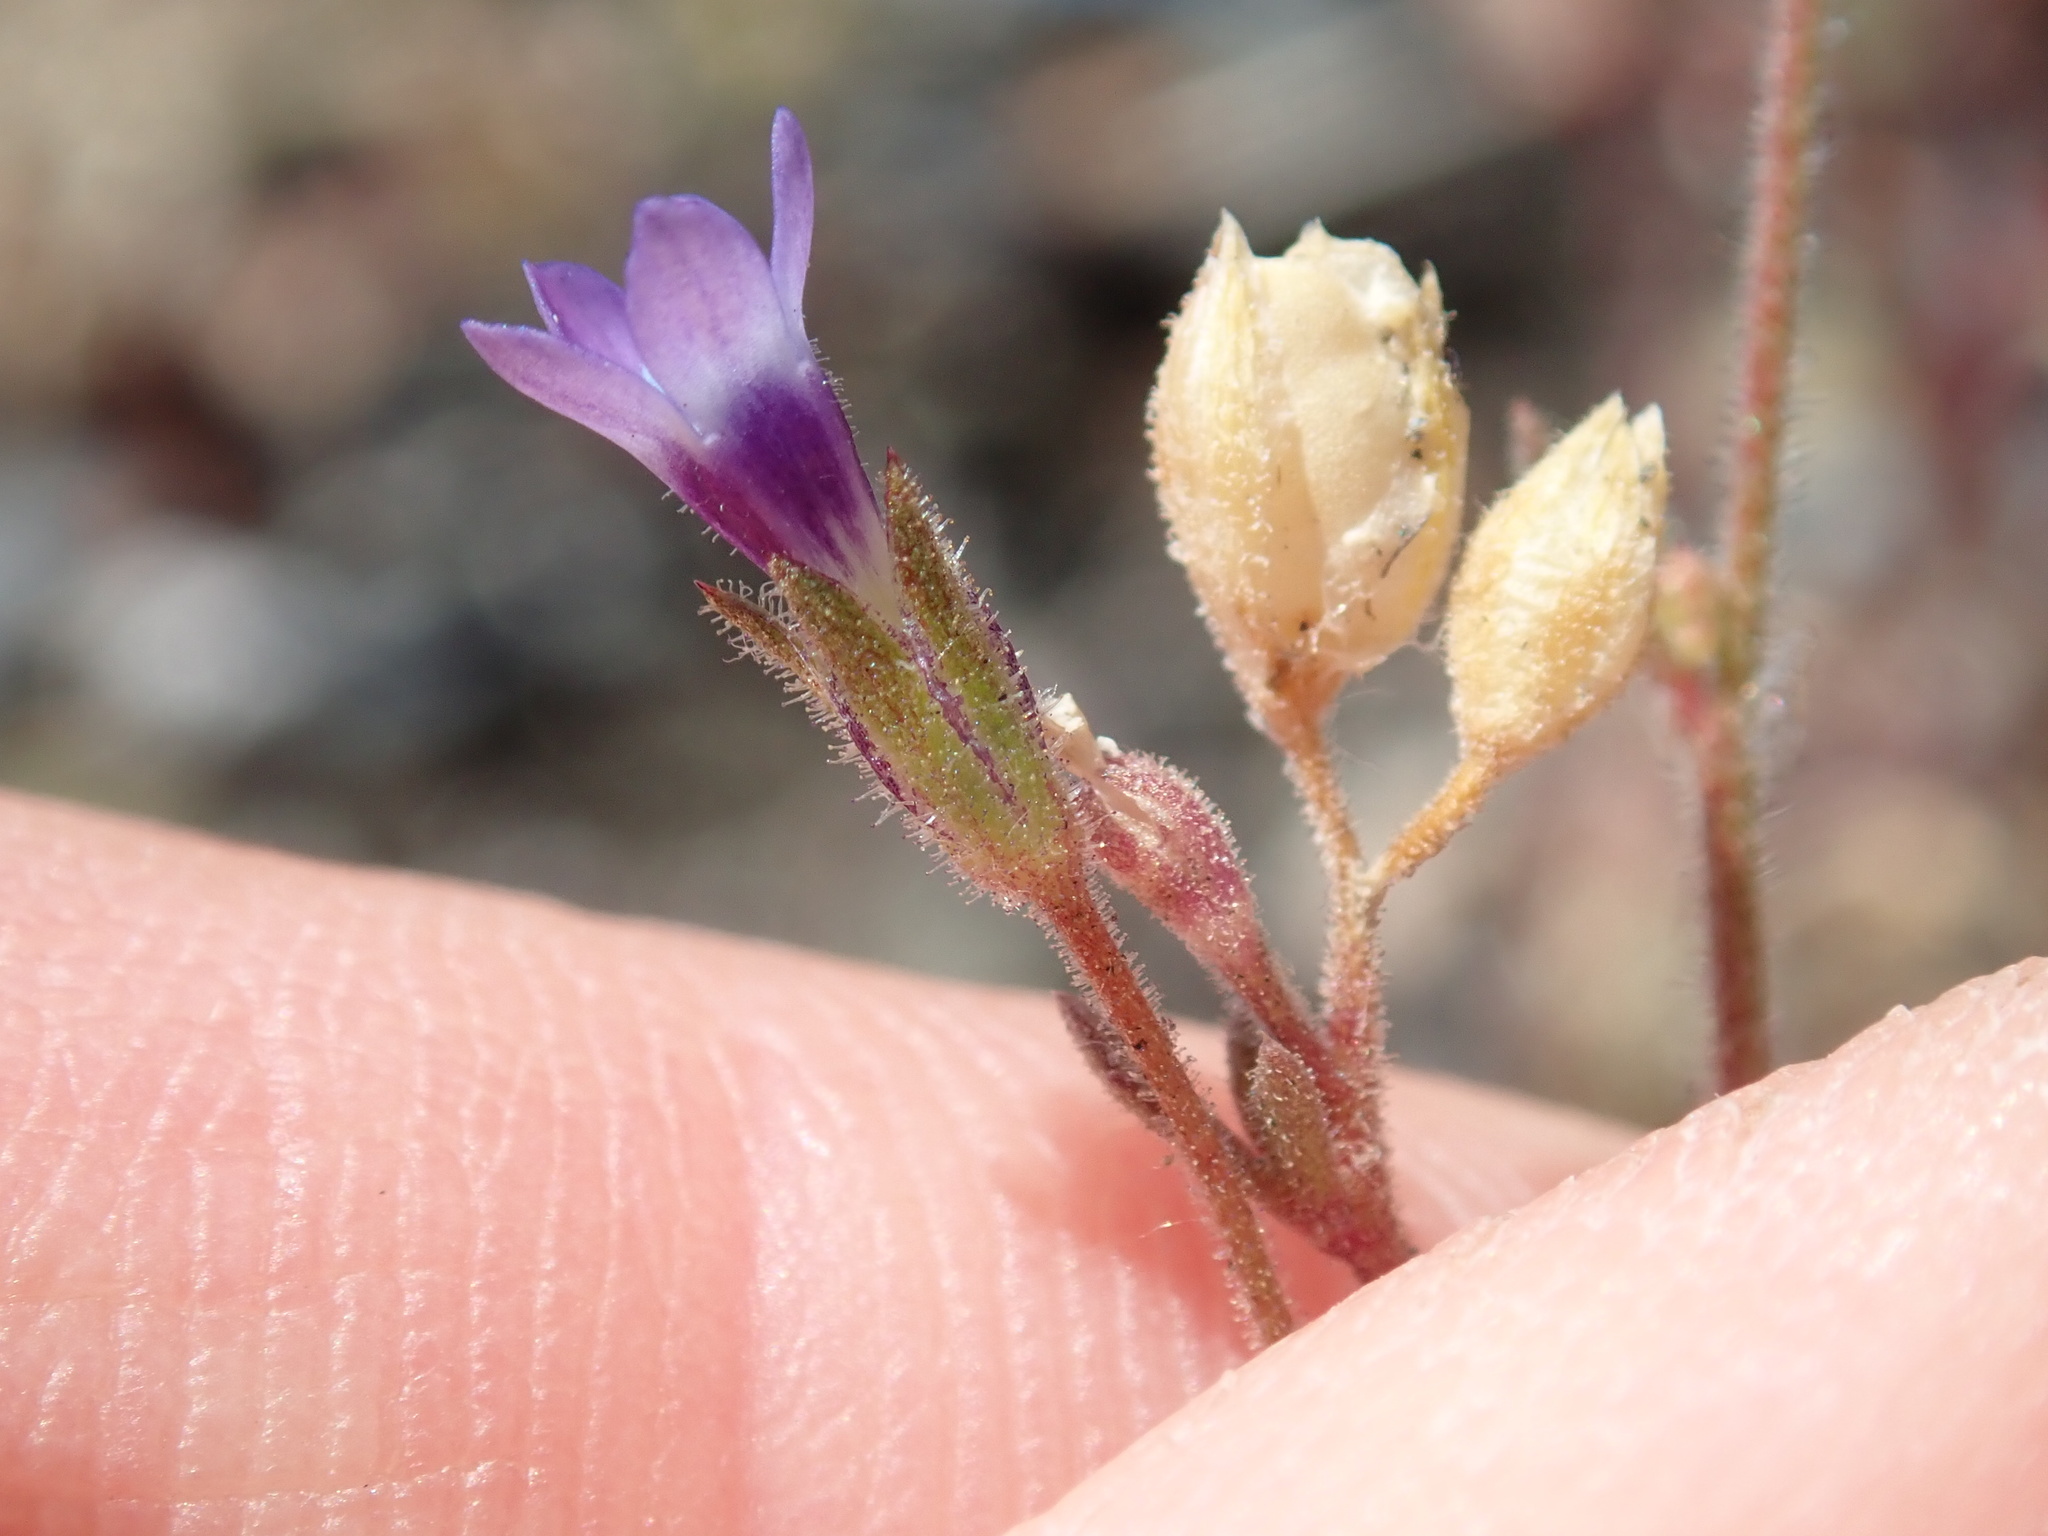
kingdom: Plantae
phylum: Tracheophyta
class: Magnoliopsida
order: Ericales
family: Polemoniaceae
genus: Gilia
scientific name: Gilia clivorum
